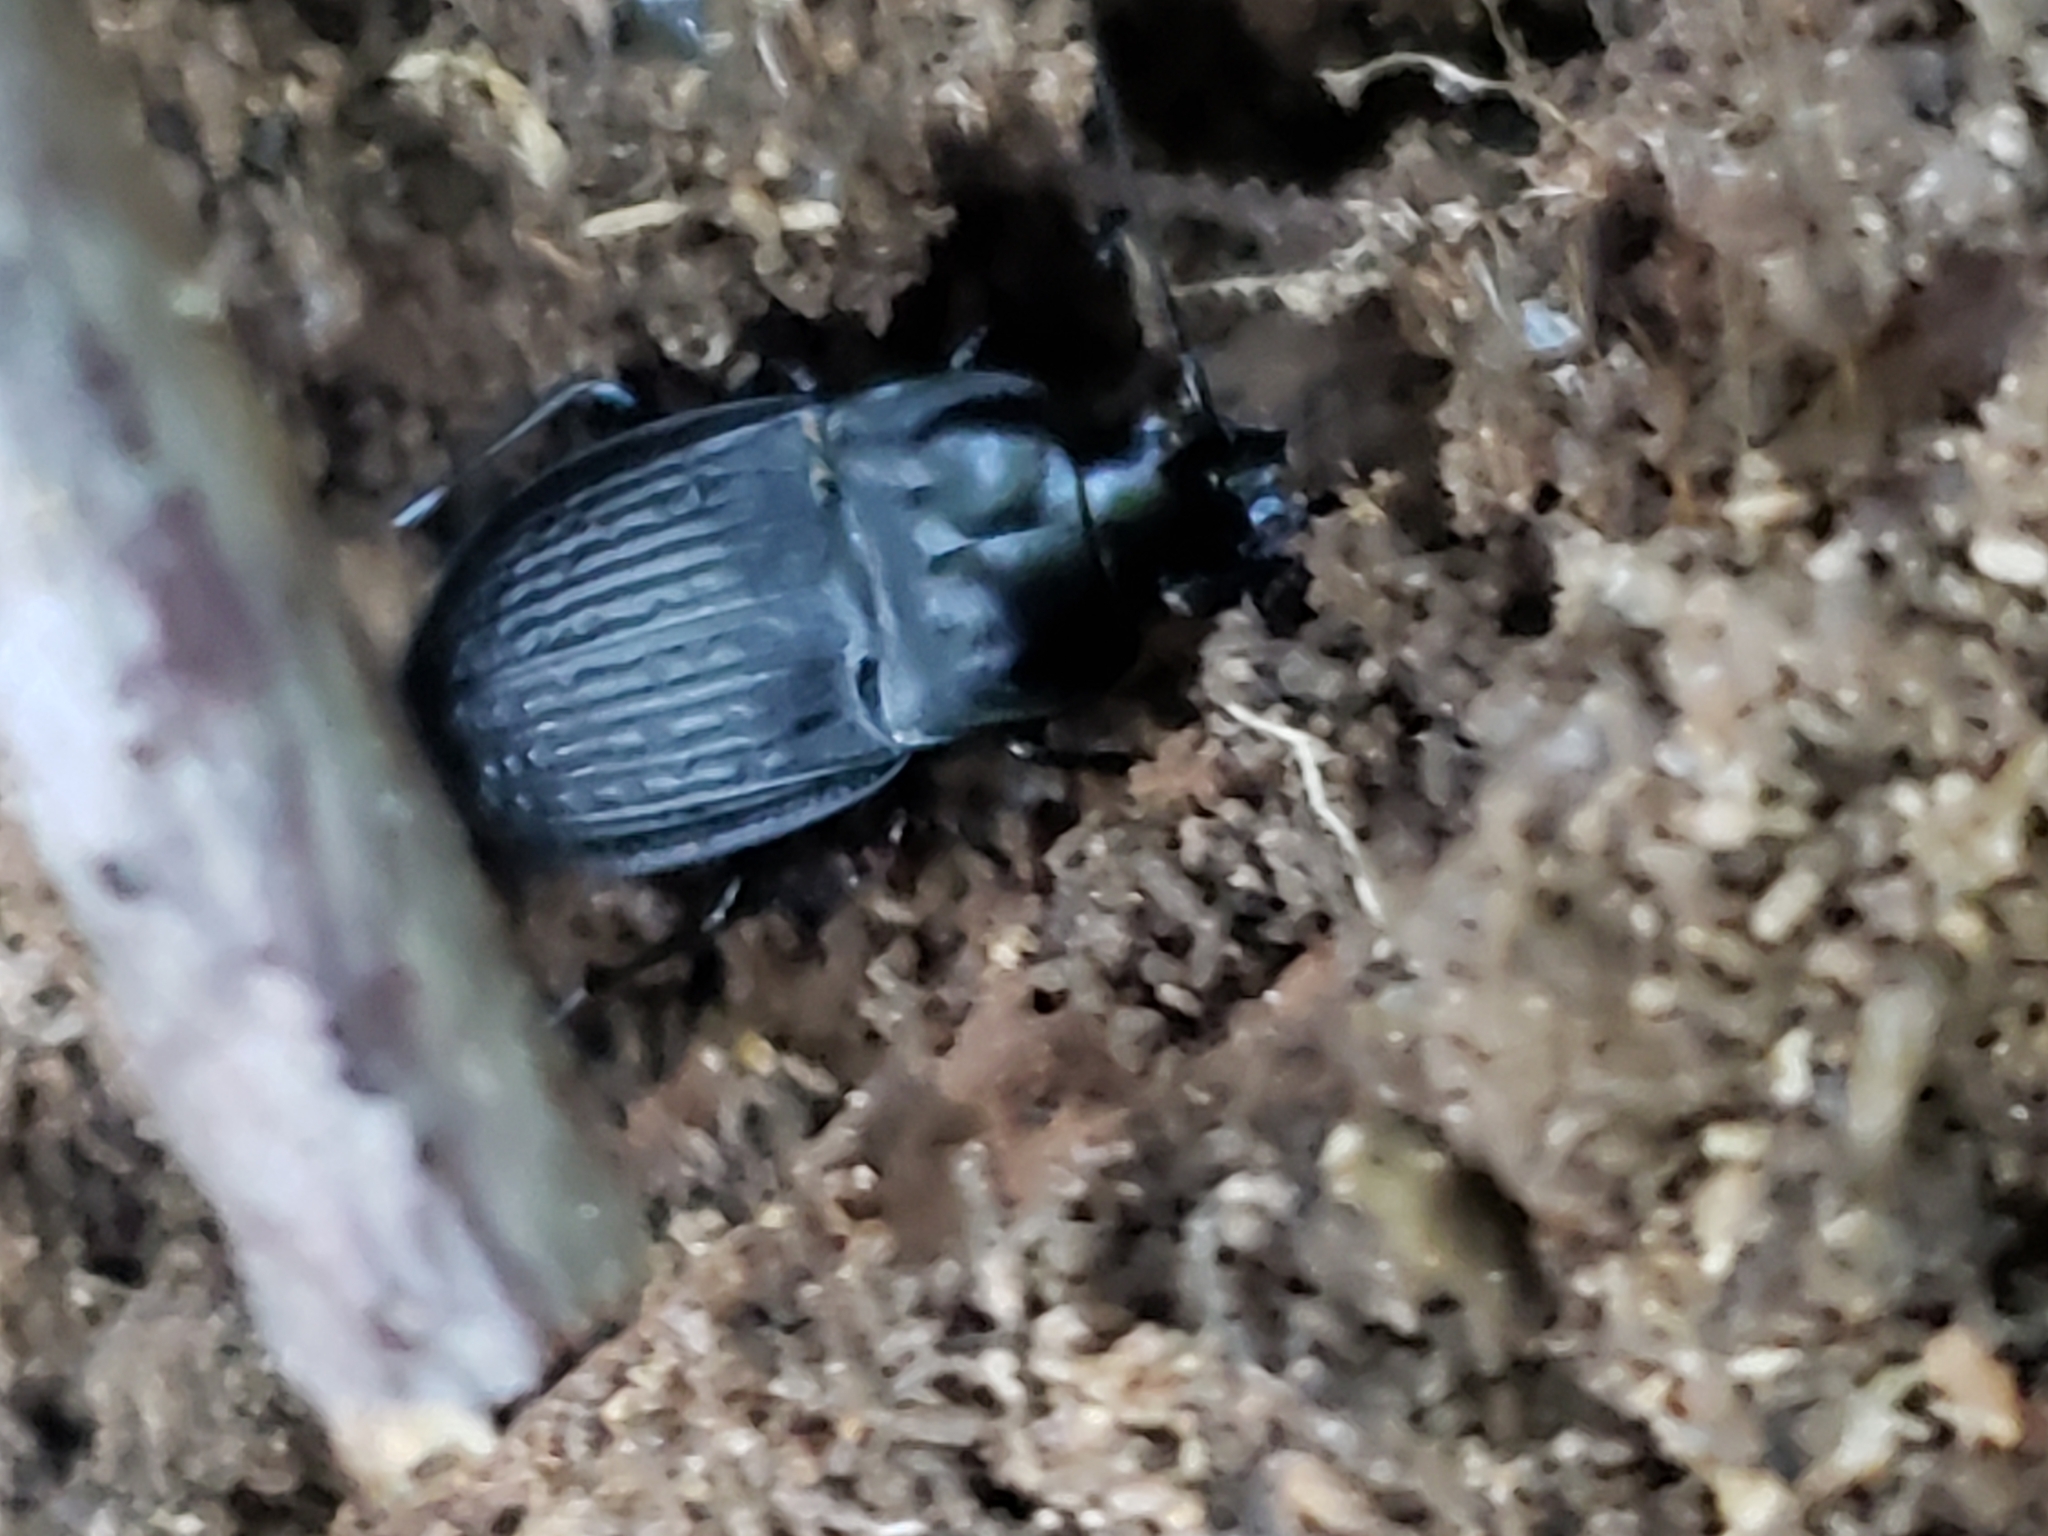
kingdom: Animalia
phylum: Arthropoda
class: Insecta
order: Coleoptera
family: Carabidae
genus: Dicaelus
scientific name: Dicaelus sculptilis
